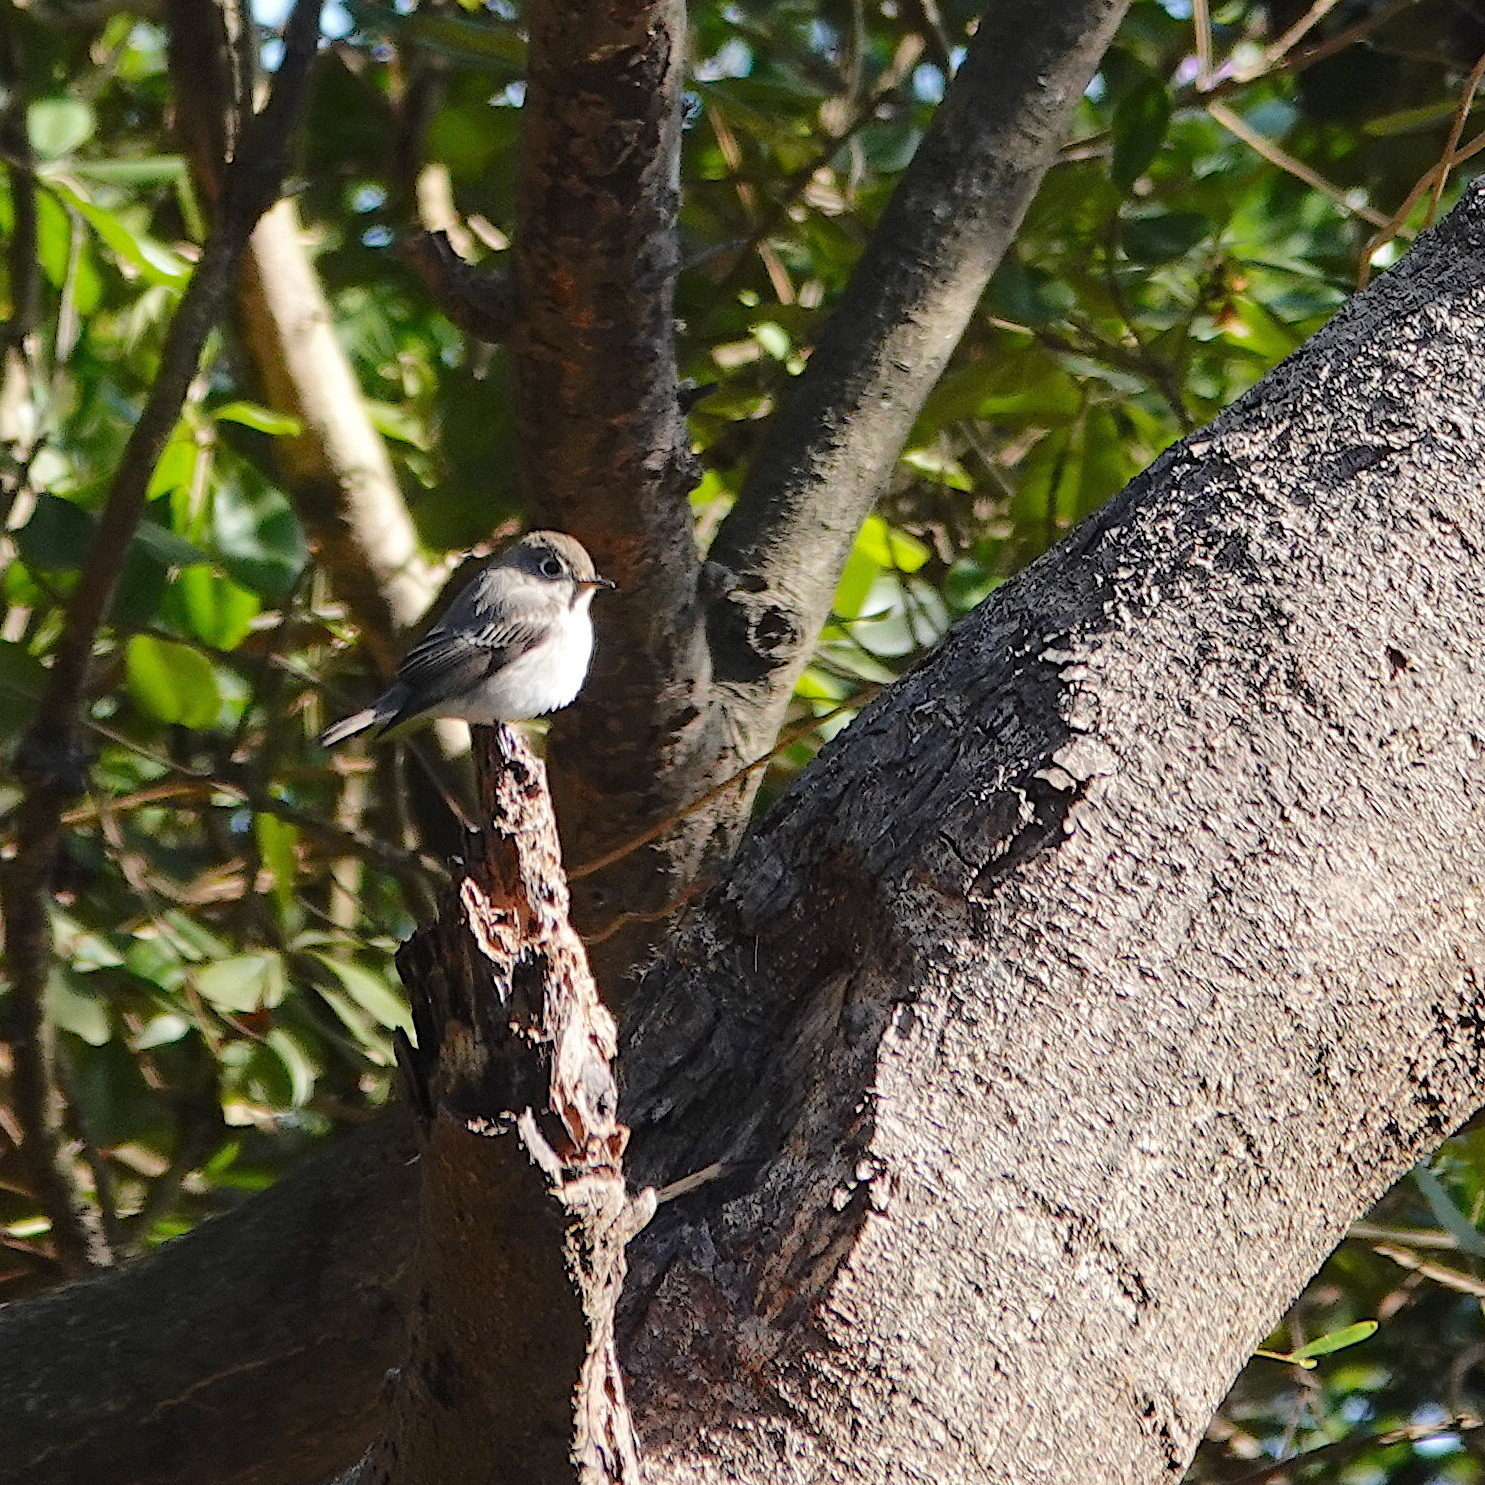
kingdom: Animalia
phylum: Chordata
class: Aves
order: Passeriformes
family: Muscicapidae
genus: Muscicapa
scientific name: Muscicapa latirostris
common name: Asian brown flycatcher
